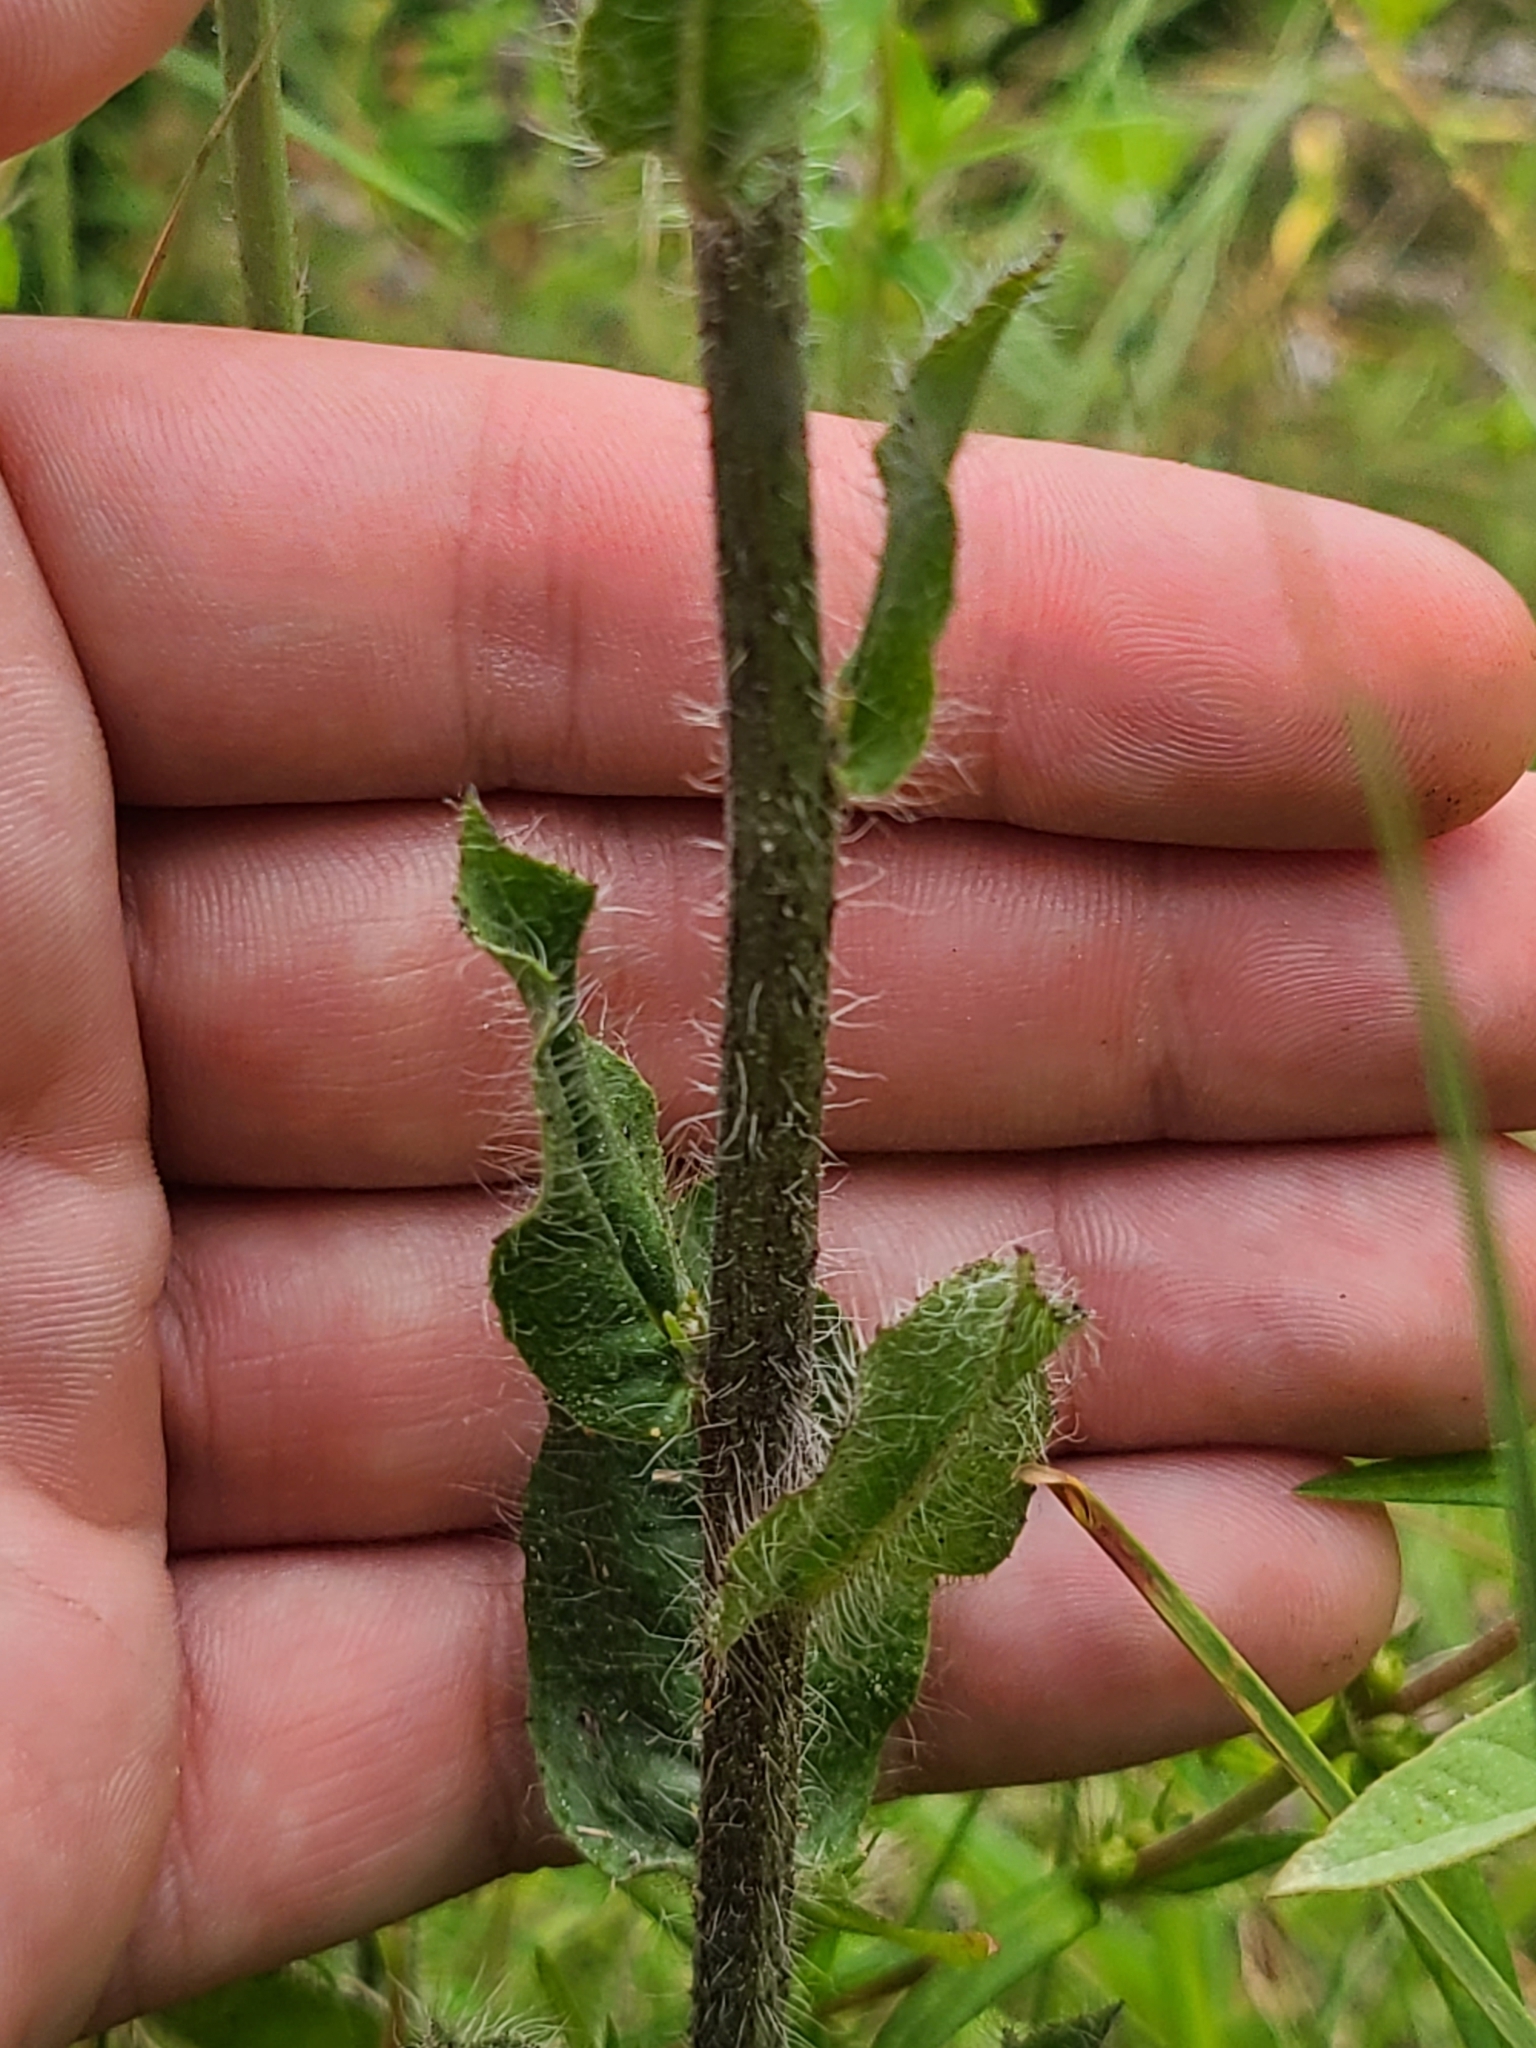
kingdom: Plantae
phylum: Tracheophyta
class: Magnoliopsida
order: Asterales
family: Asteraceae
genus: Hieracium
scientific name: Hieracium gronovii
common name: Beaked hawkweed
